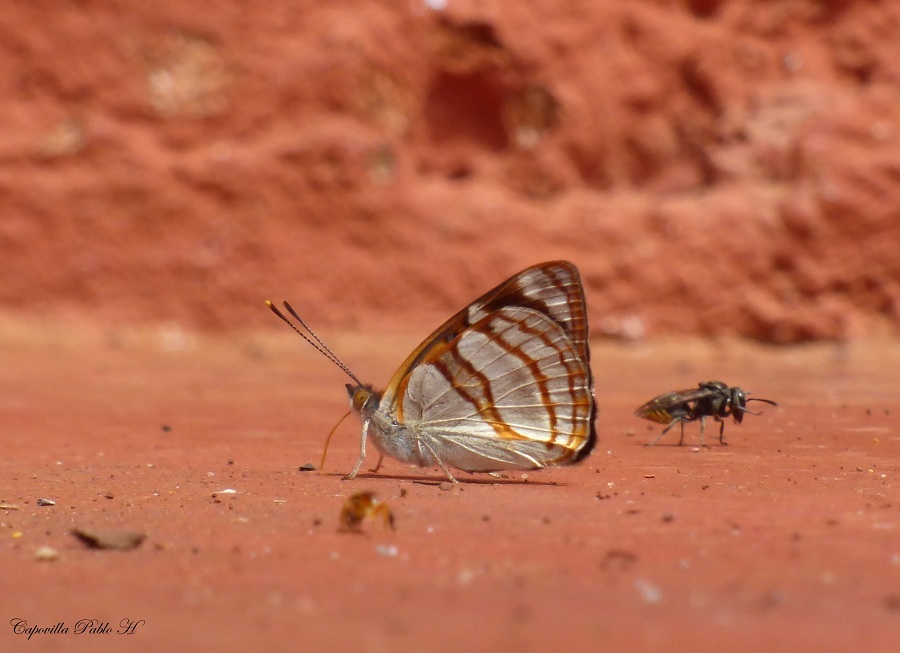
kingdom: Animalia
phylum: Arthropoda
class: Insecta
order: Lepidoptera
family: Nymphalidae
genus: Dynamine
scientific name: Dynamine tithia
